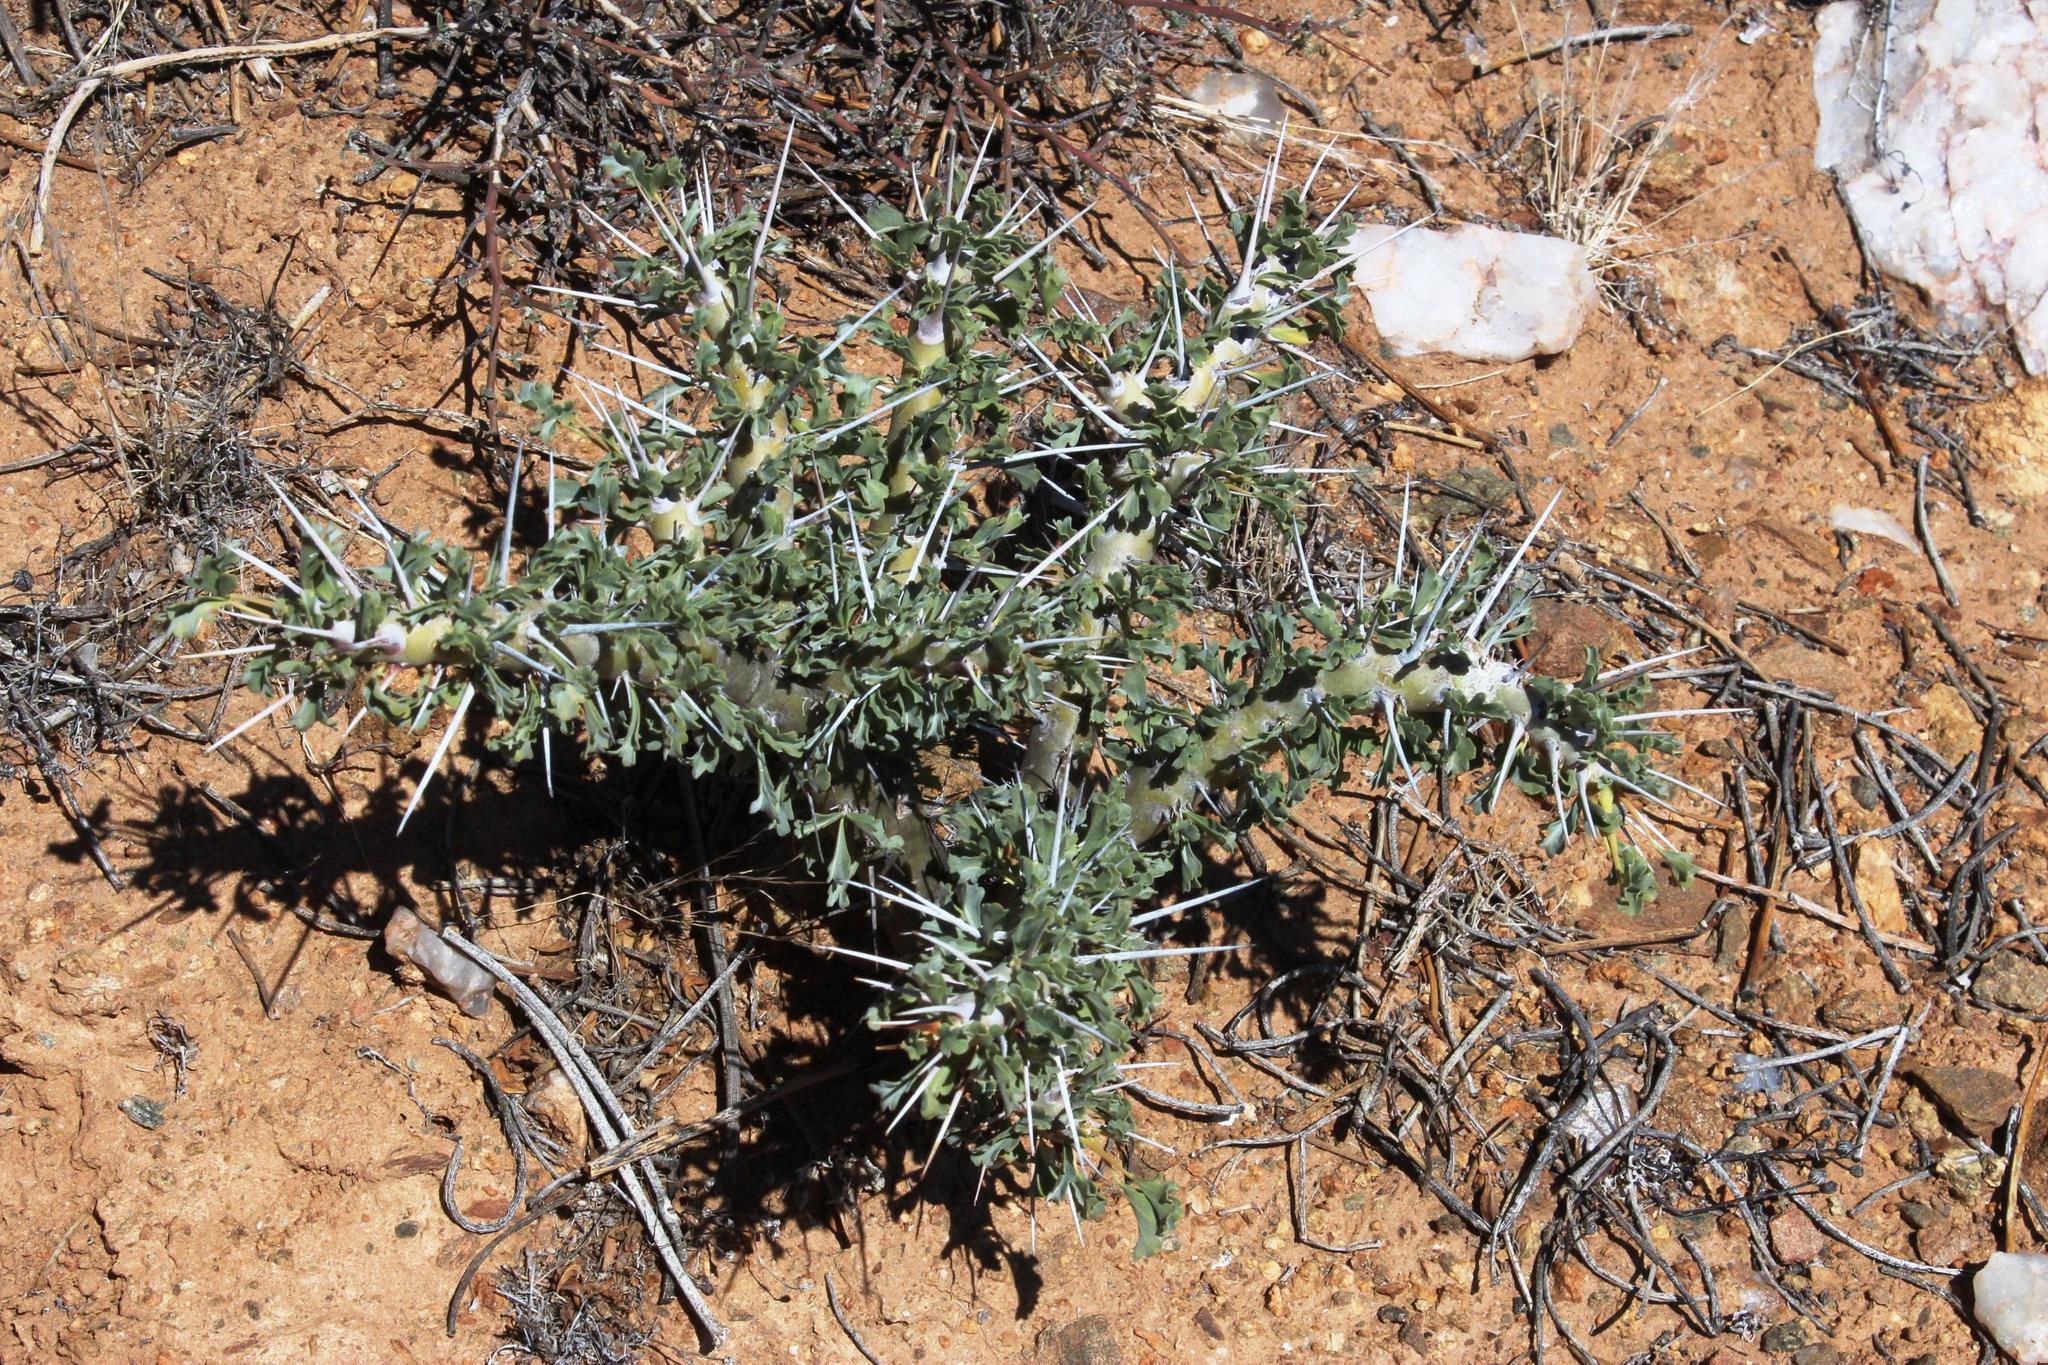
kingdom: Plantae
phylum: Tracheophyta
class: Magnoliopsida
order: Geraniales
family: Geraniaceae
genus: Monsonia
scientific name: Monsonia crassicaulis
